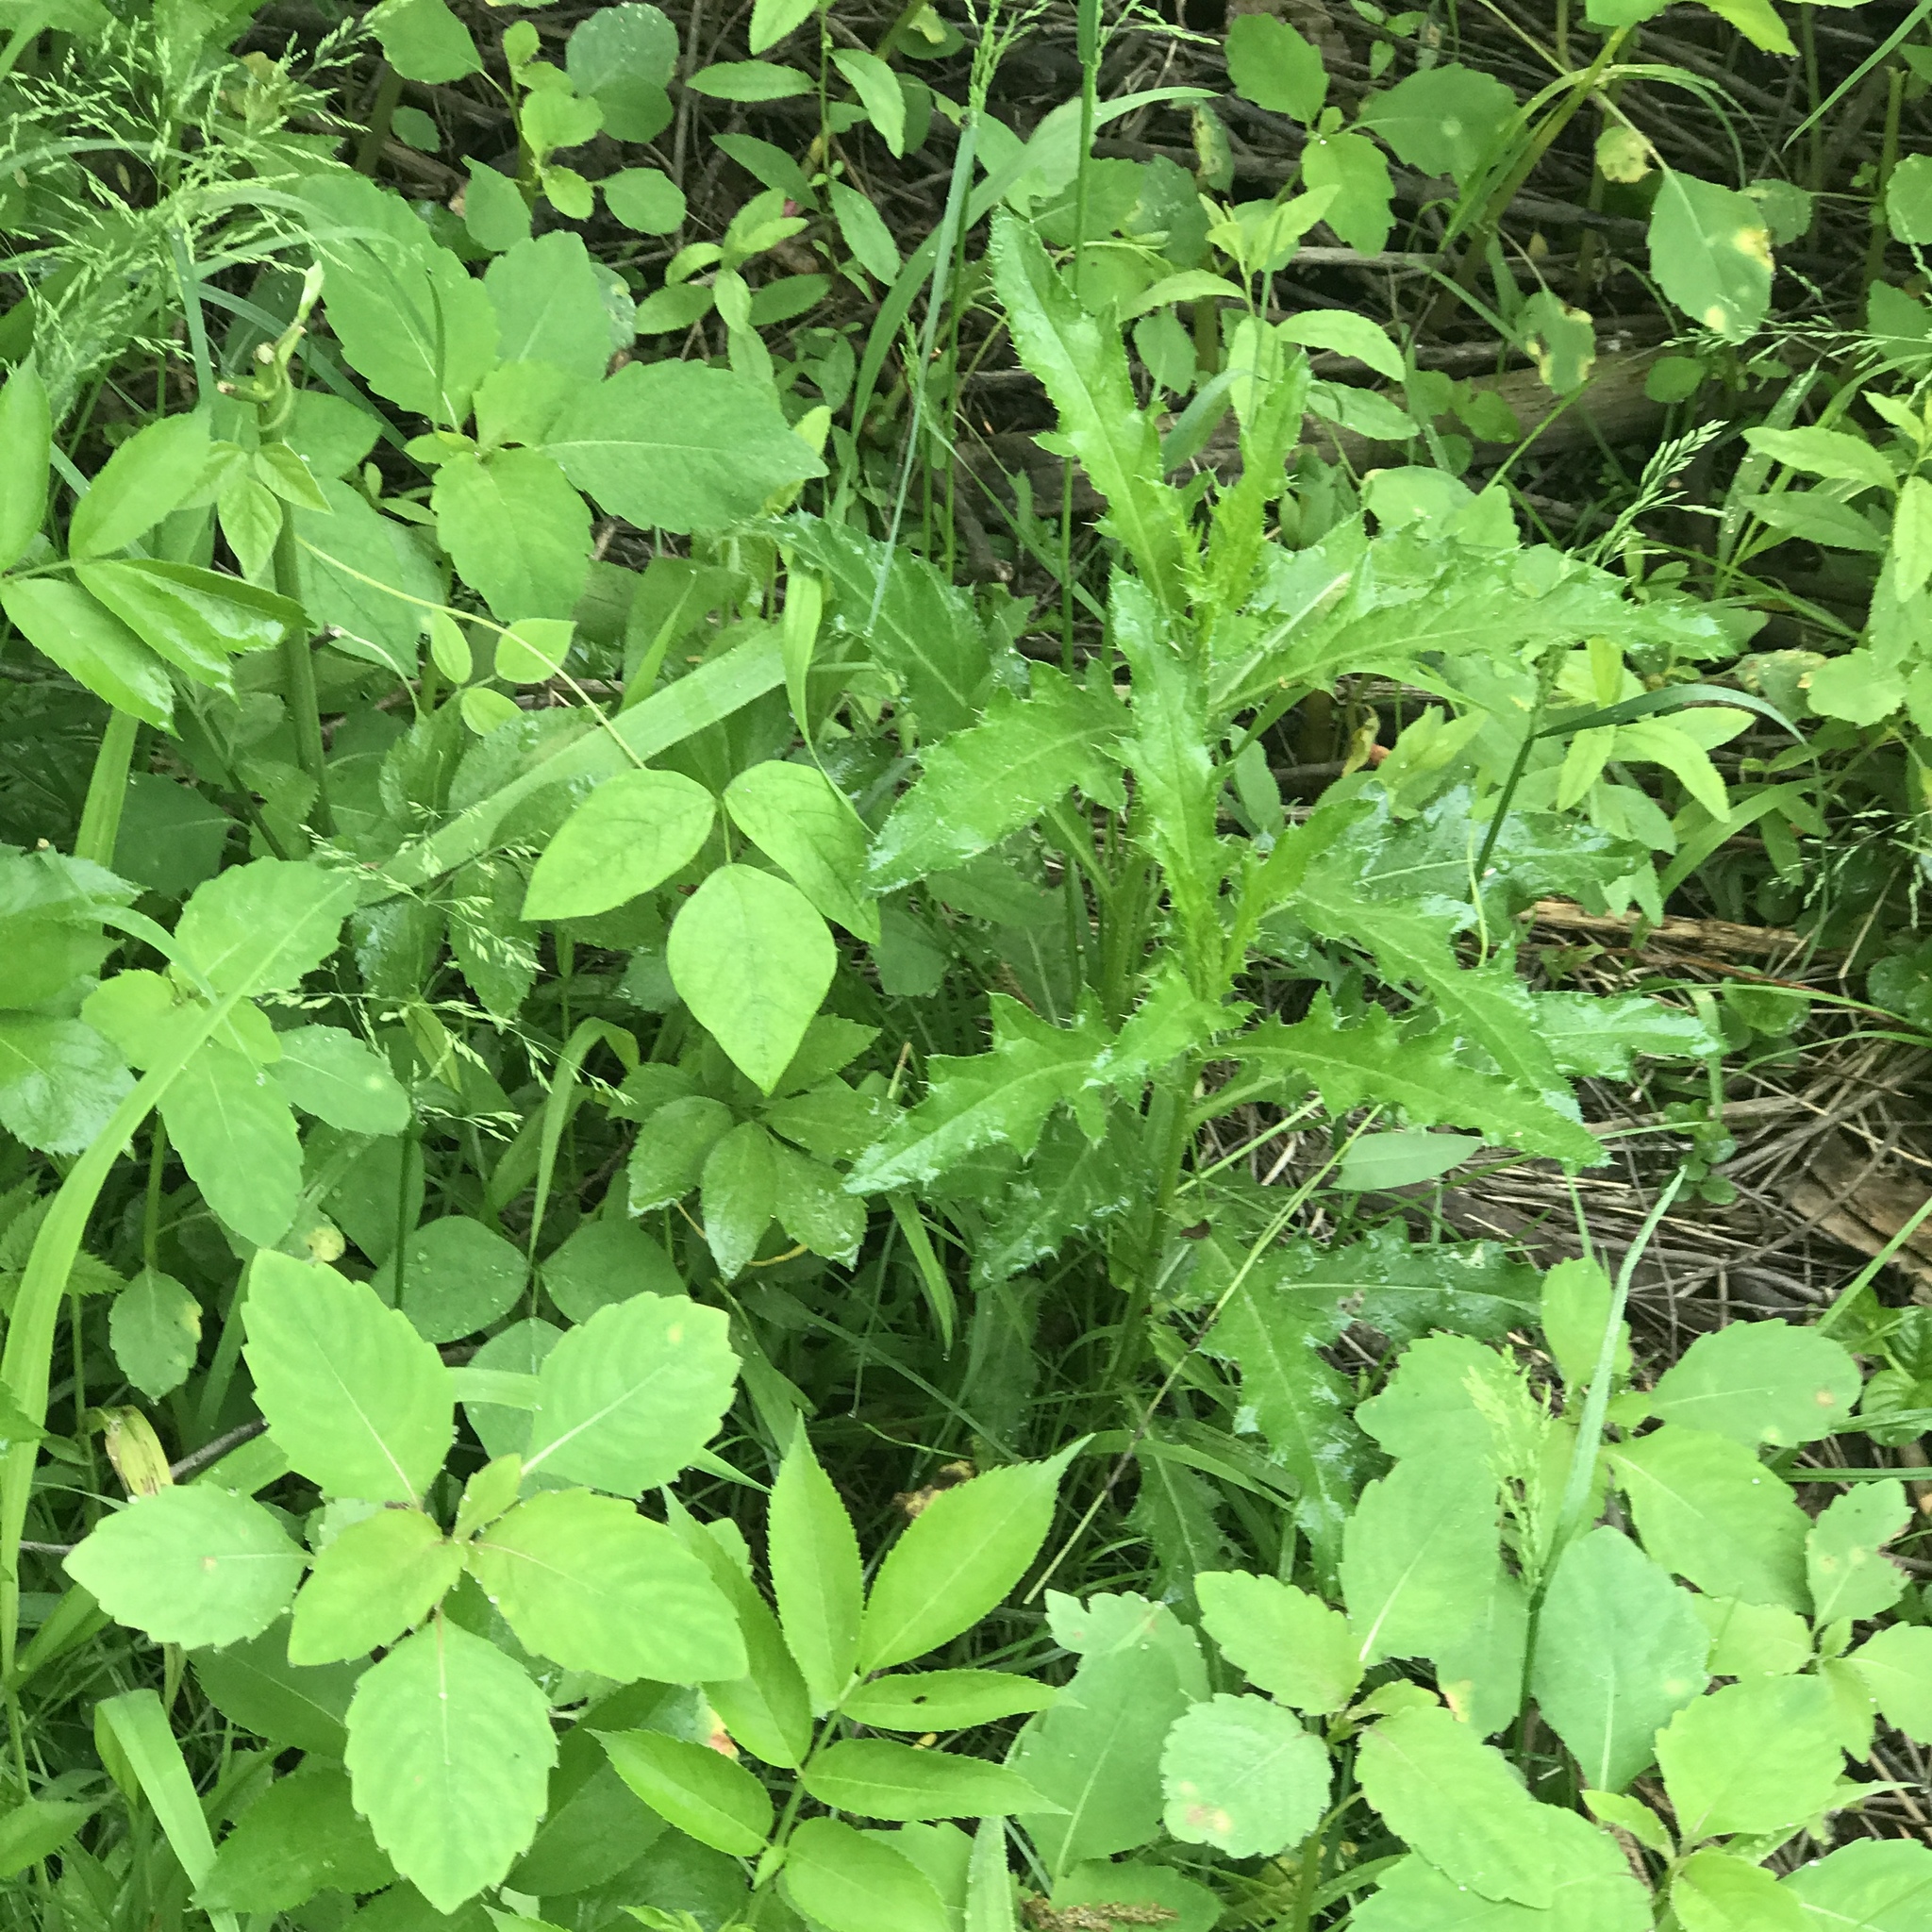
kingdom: Plantae
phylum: Tracheophyta
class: Magnoliopsida
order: Asterales
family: Asteraceae
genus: Cirsium
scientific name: Cirsium arvense
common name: Creeping thistle
